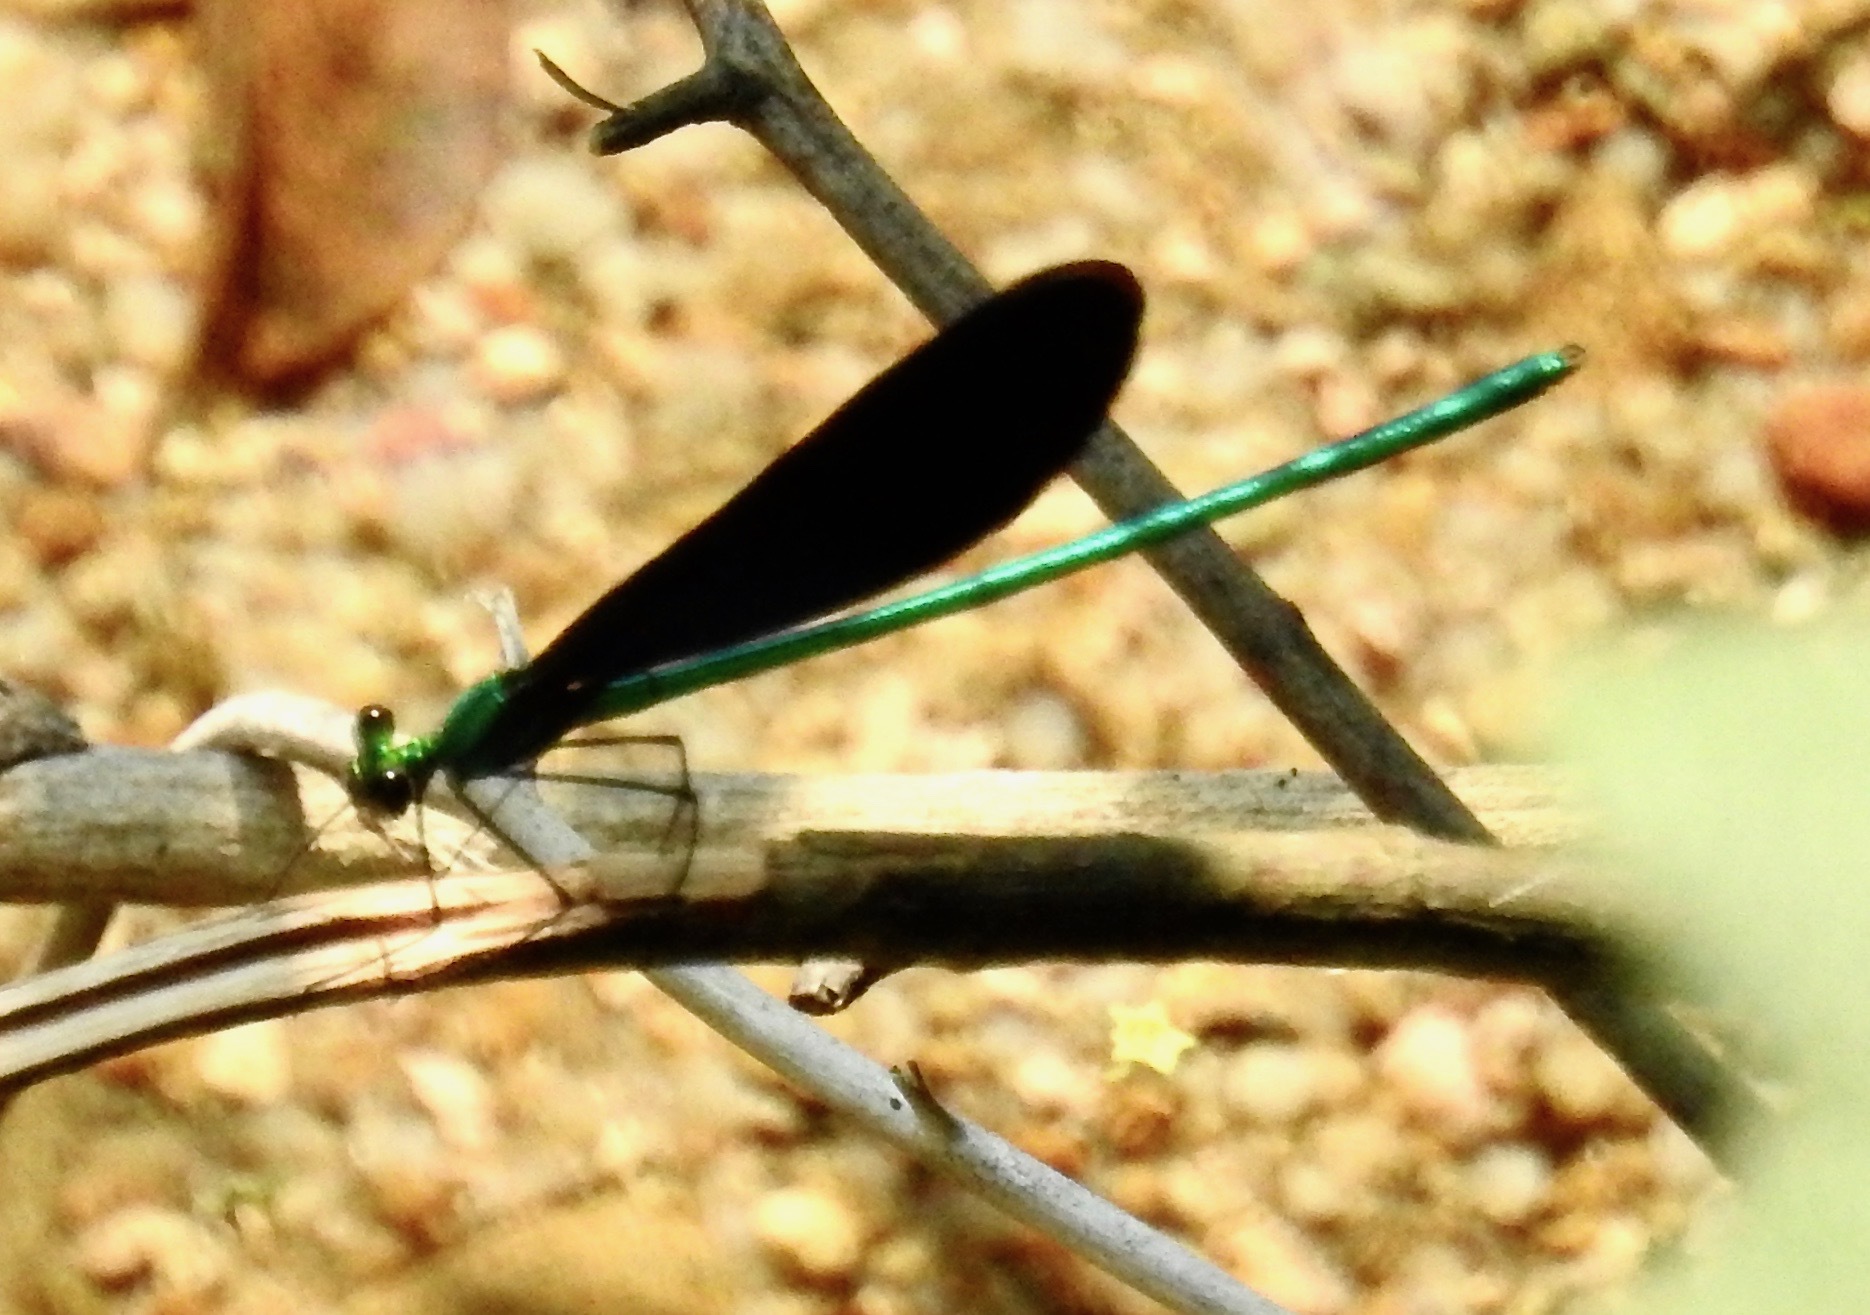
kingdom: Animalia
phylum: Arthropoda
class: Insecta
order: Odonata
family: Calopterygidae
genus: Neurobasis
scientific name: Neurobasis chinensis
